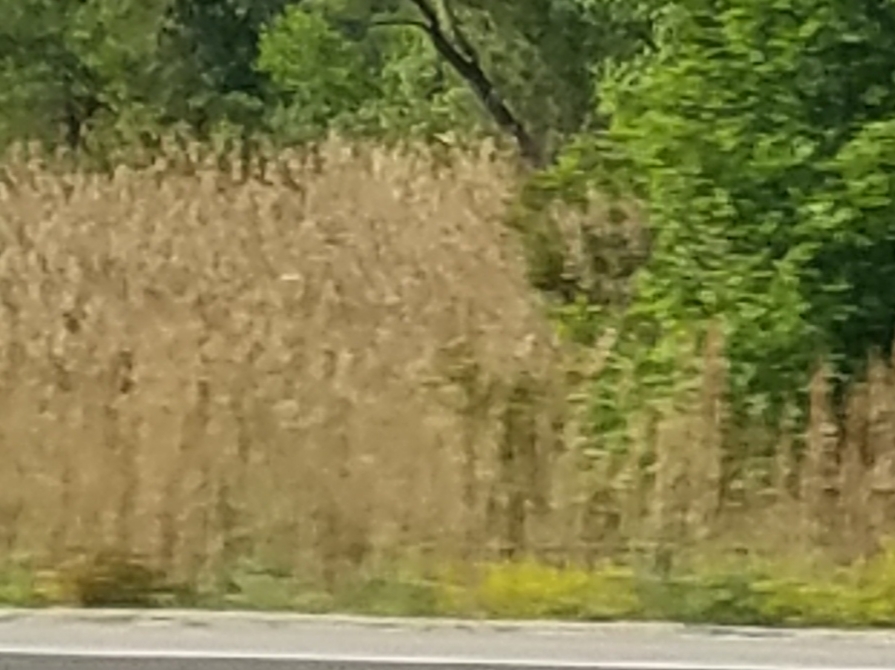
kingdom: Plantae
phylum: Tracheophyta
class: Liliopsida
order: Poales
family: Poaceae
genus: Phragmites
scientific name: Phragmites australis
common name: Common reed
